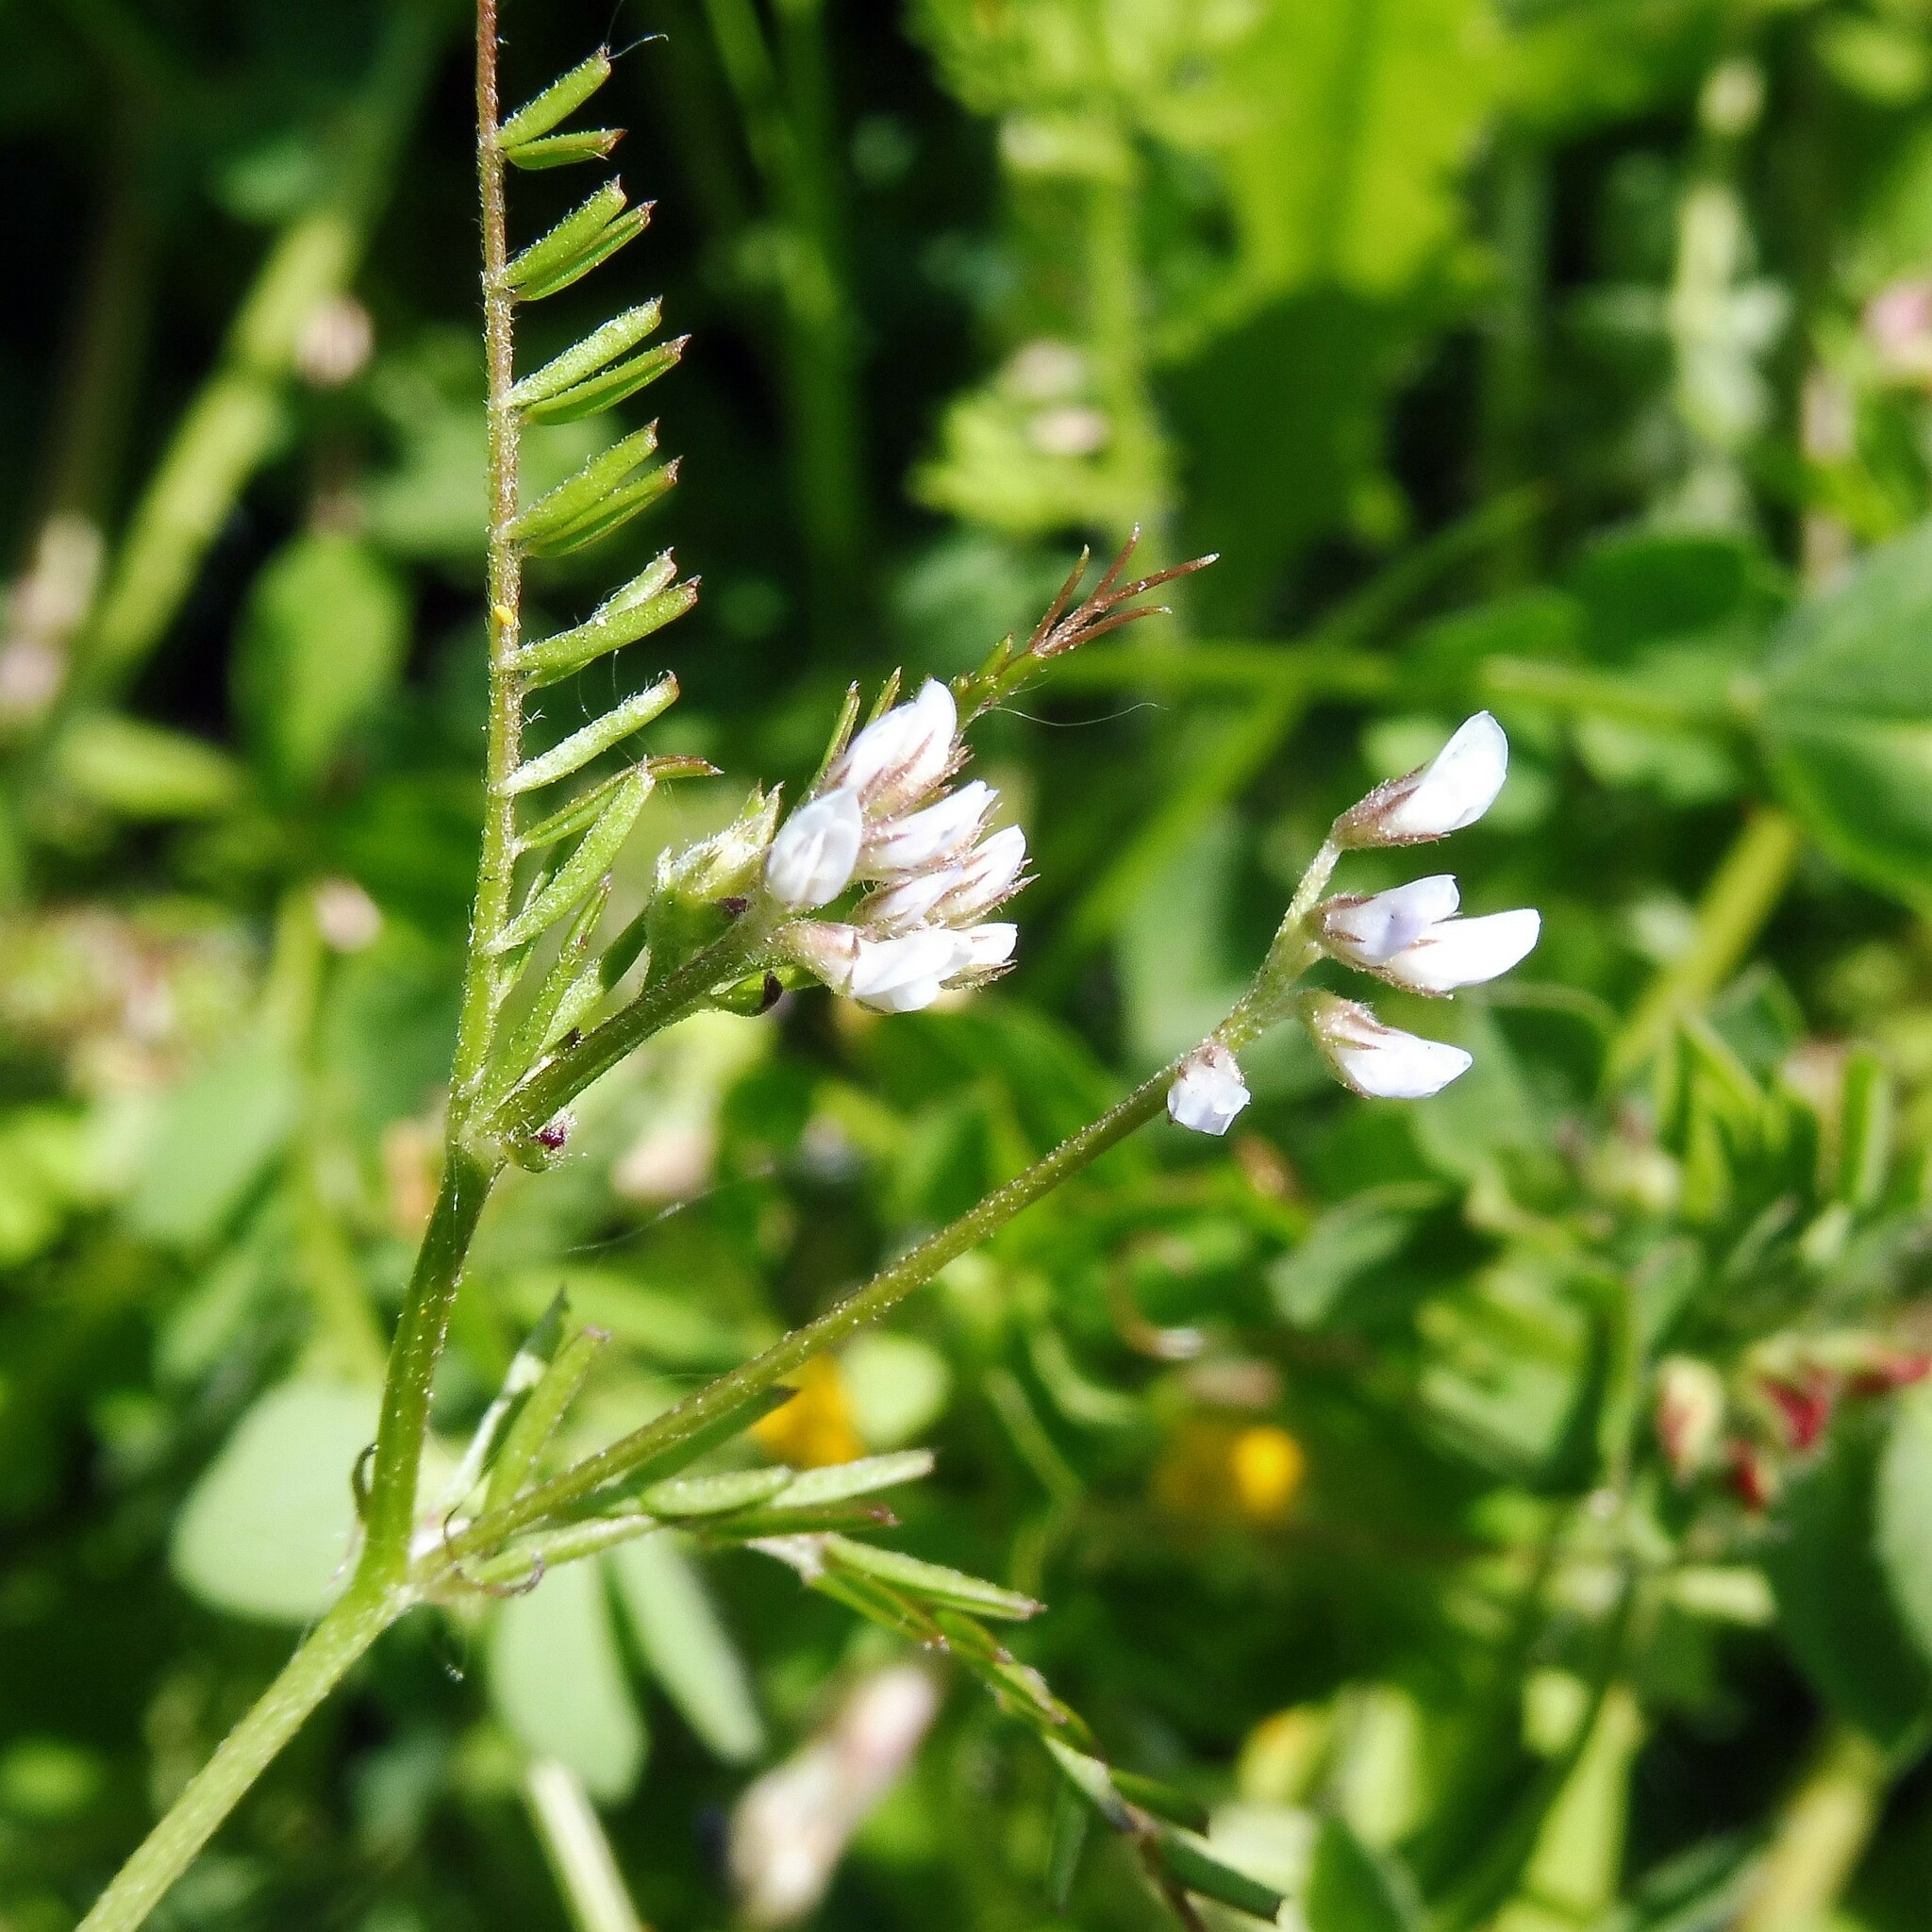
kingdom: Plantae
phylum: Tracheophyta
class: Magnoliopsida
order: Fabales
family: Fabaceae
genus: Vicia
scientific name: Vicia hirsuta
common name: Tiny vetch
